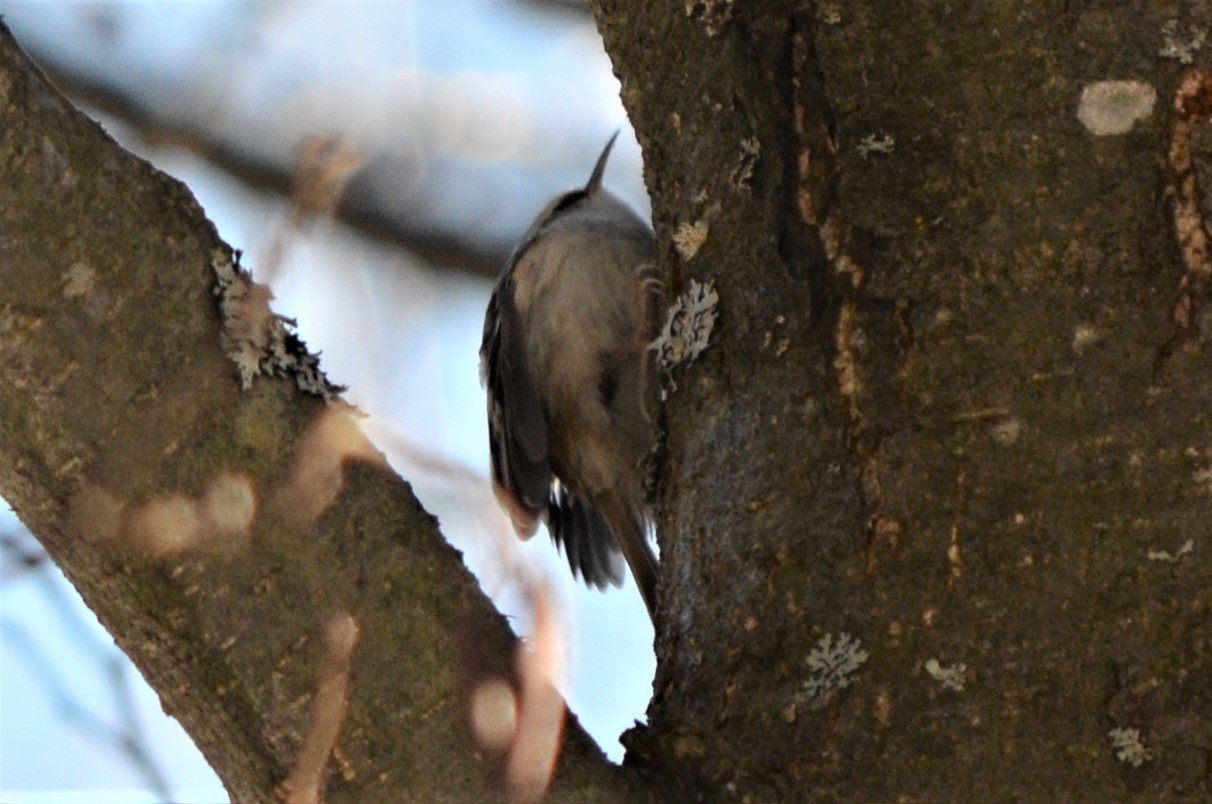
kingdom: Animalia
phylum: Chordata
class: Aves
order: Passeriformes
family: Certhiidae
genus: Certhia
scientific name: Certhia familiaris
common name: Eurasian treecreeper
